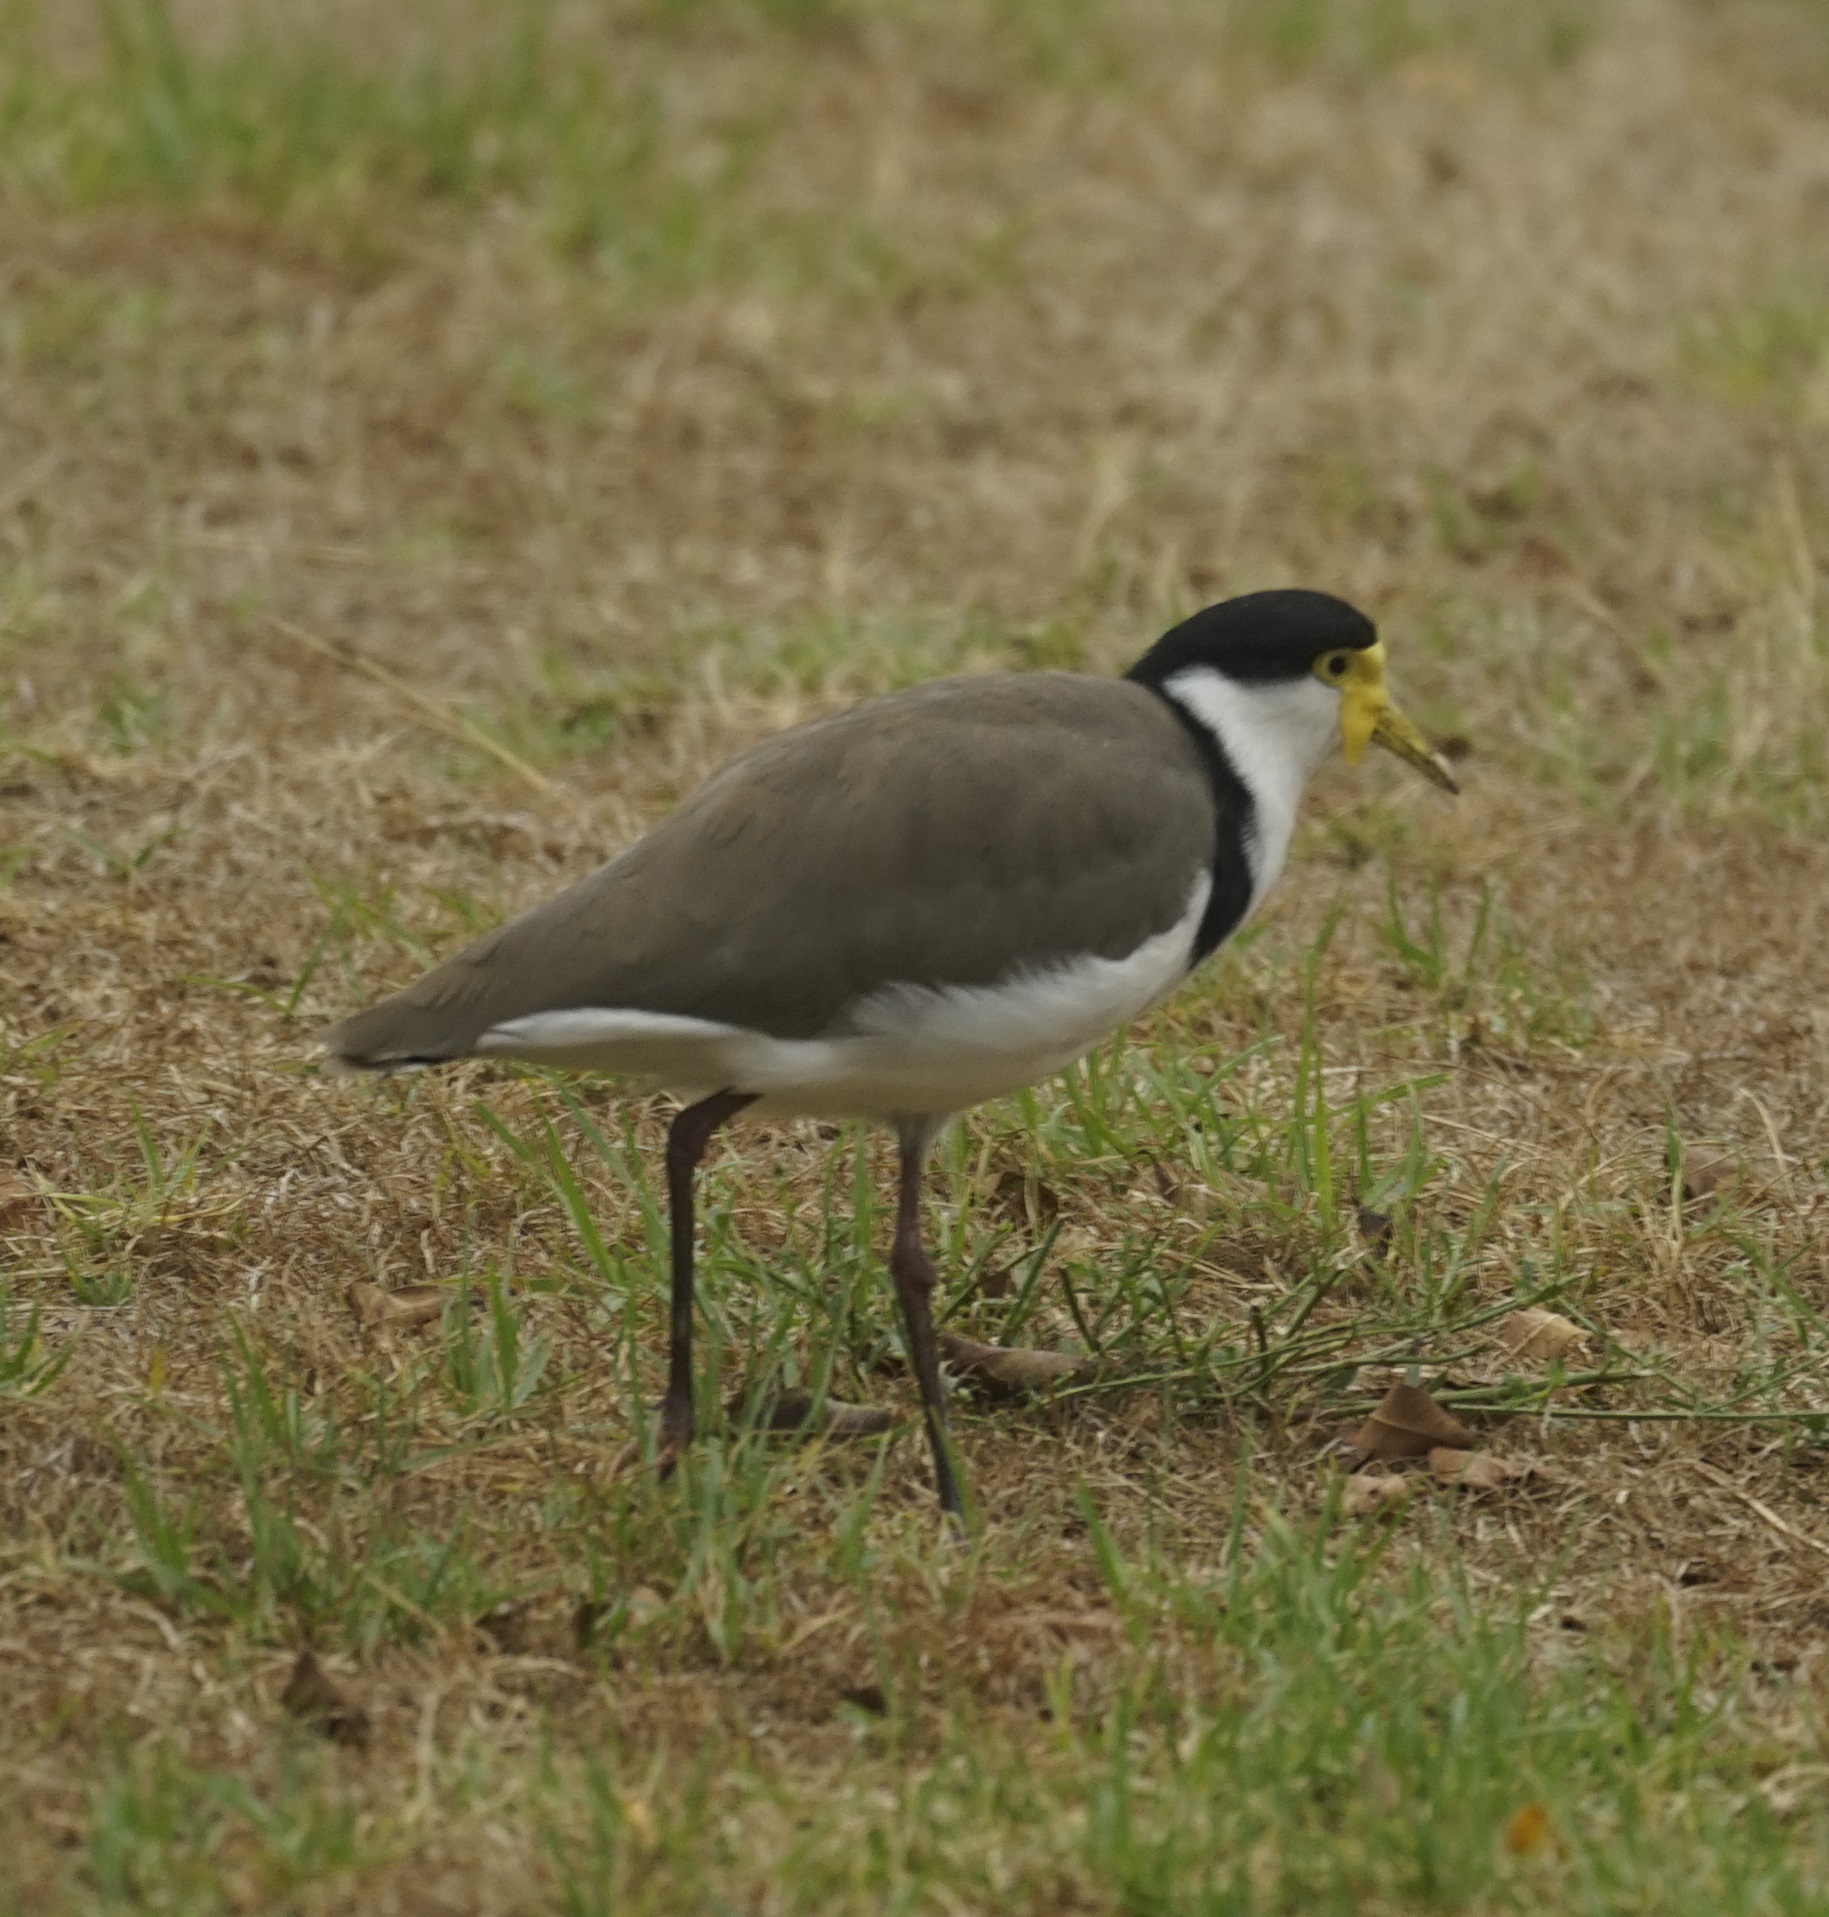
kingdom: Animalia
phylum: Chordata
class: Aves
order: Charadriiformes
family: Charadriidae
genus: Vanellus
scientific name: Vanellus miles
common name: Masked lapwing
